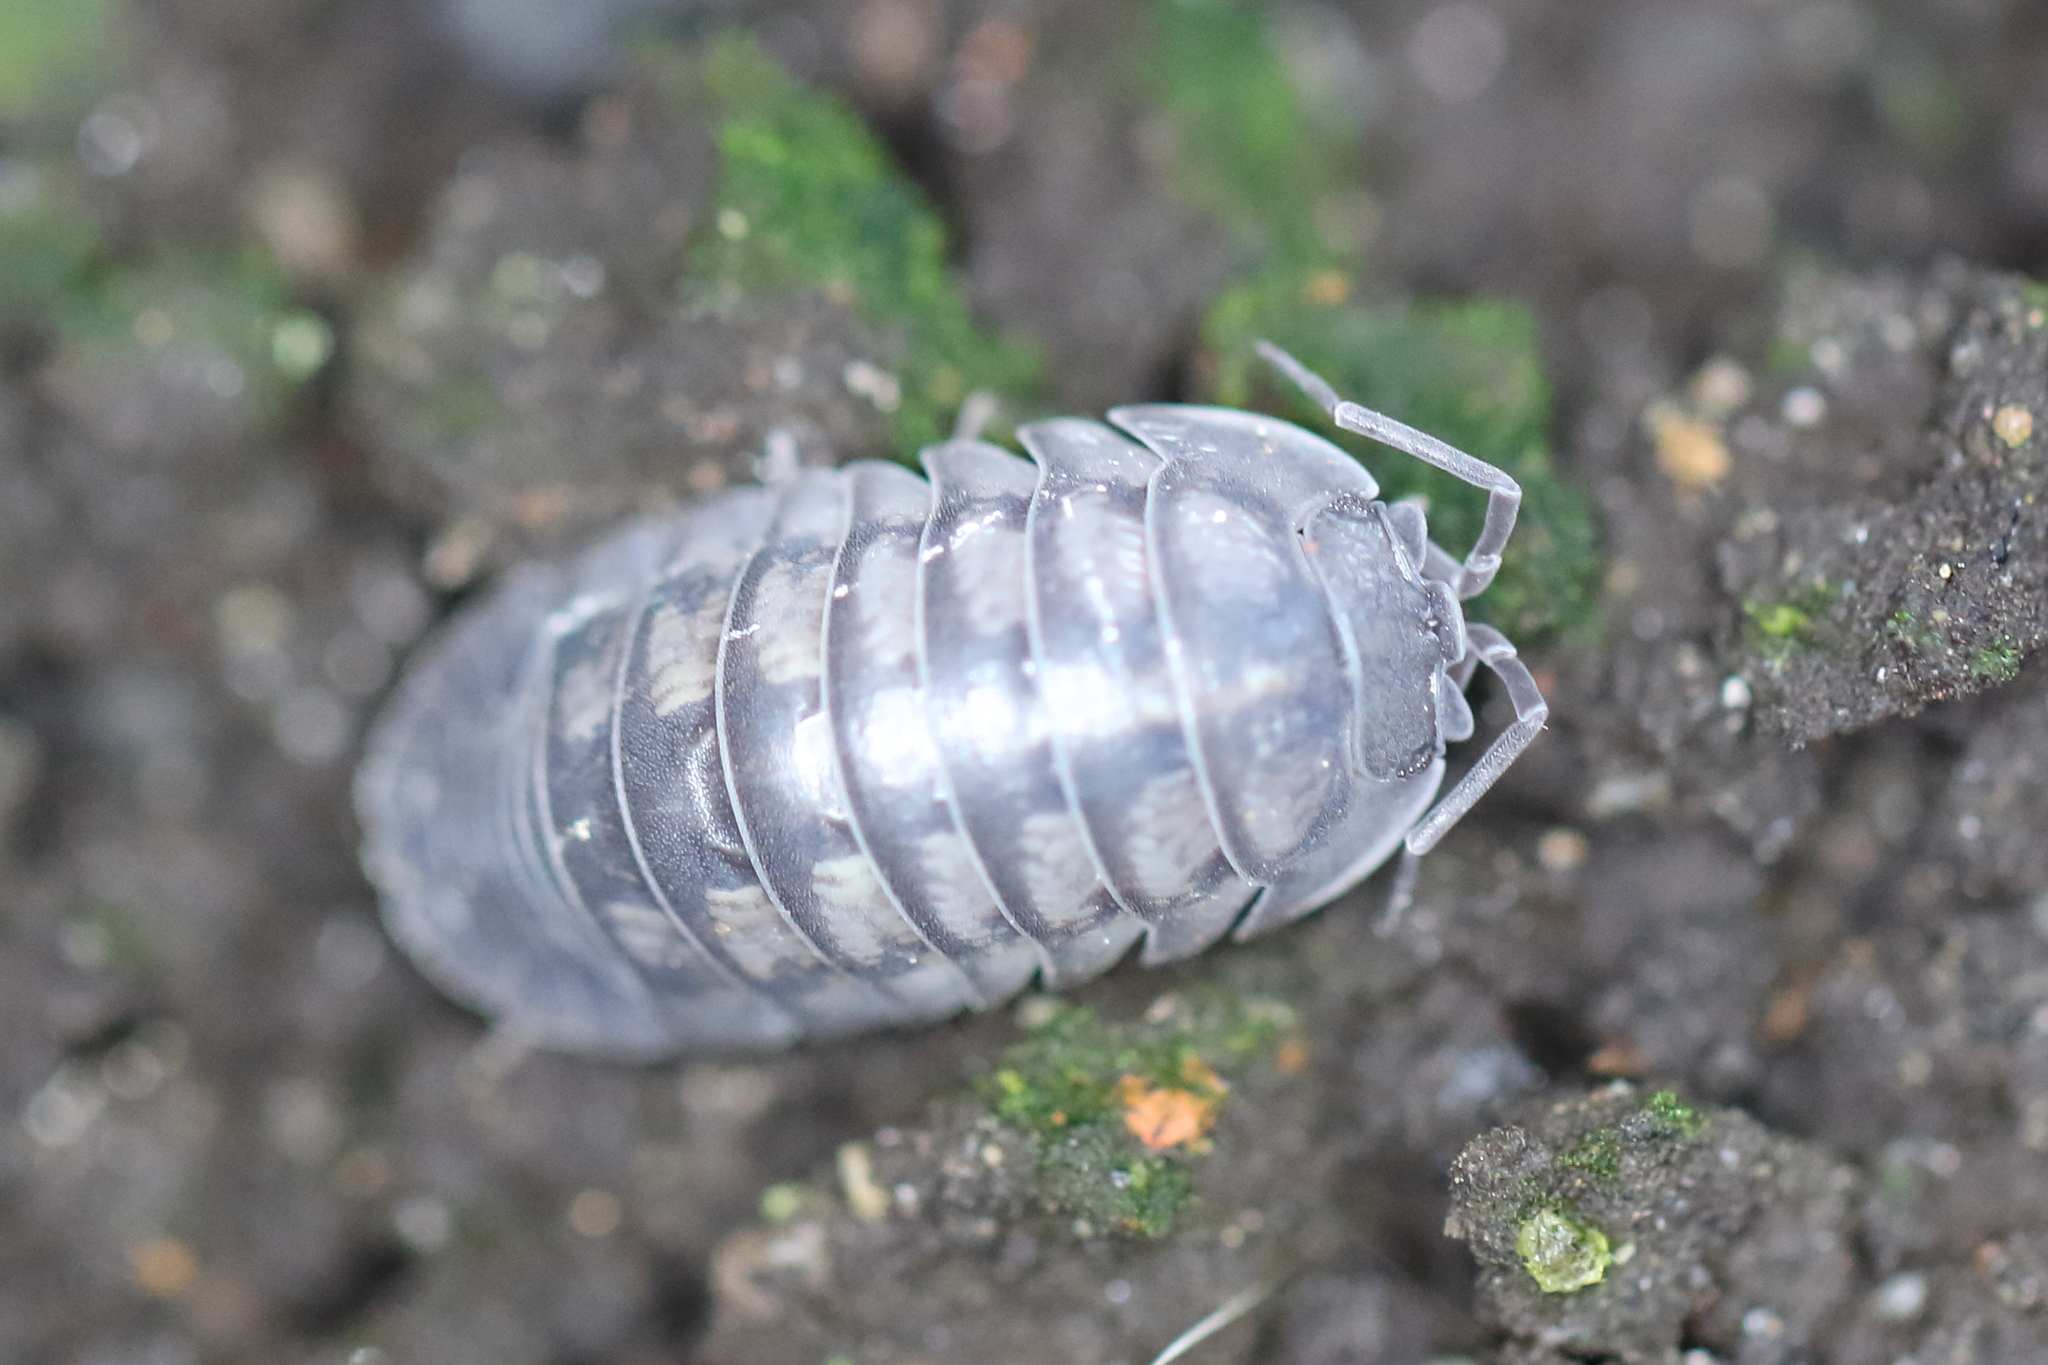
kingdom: Animalia
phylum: Arthropoda
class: Malacostraca
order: Isopoda
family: Armadillidiidae
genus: Armadillidium
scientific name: Armadillidium nasatum
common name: Isopod
